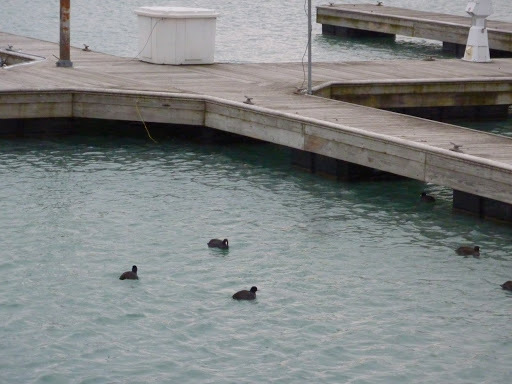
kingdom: Animalia
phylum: Chordata
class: Aves
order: Gruiformes
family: Rallidae
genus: Fulica
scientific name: Fulica americana
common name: American coot
